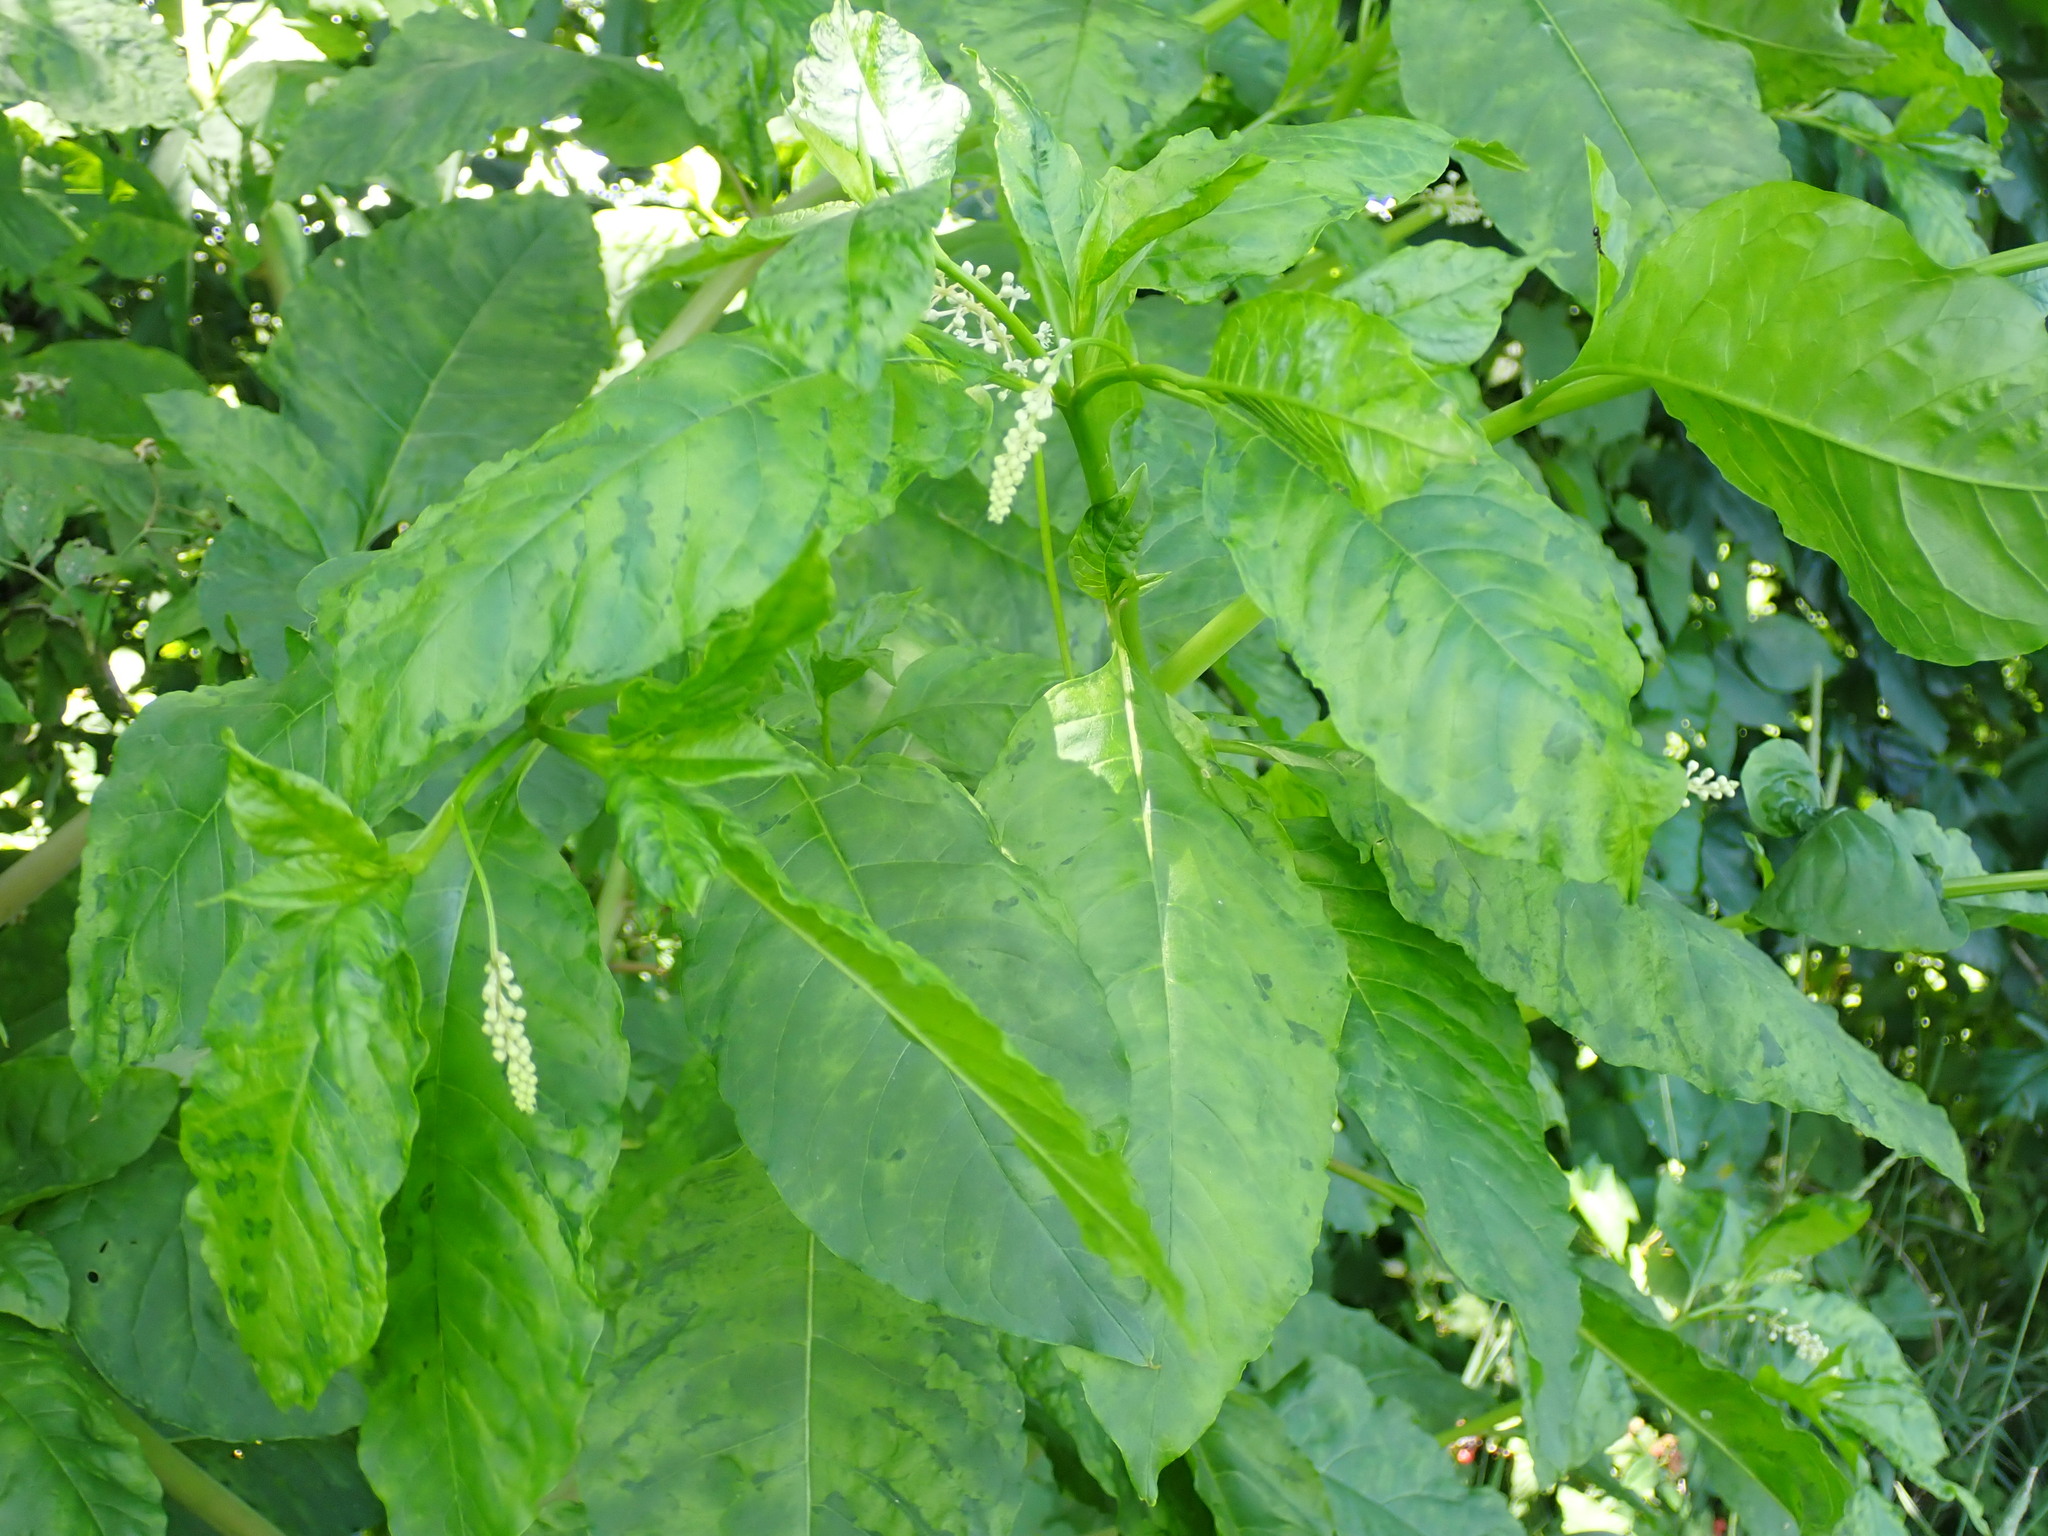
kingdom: Viruses
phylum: Pisuviricota
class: Stelpaviricetes
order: Patatavirales
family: Potyviridae
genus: Potyvirus
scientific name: Potyvirus Pokeweed mosaic virus
